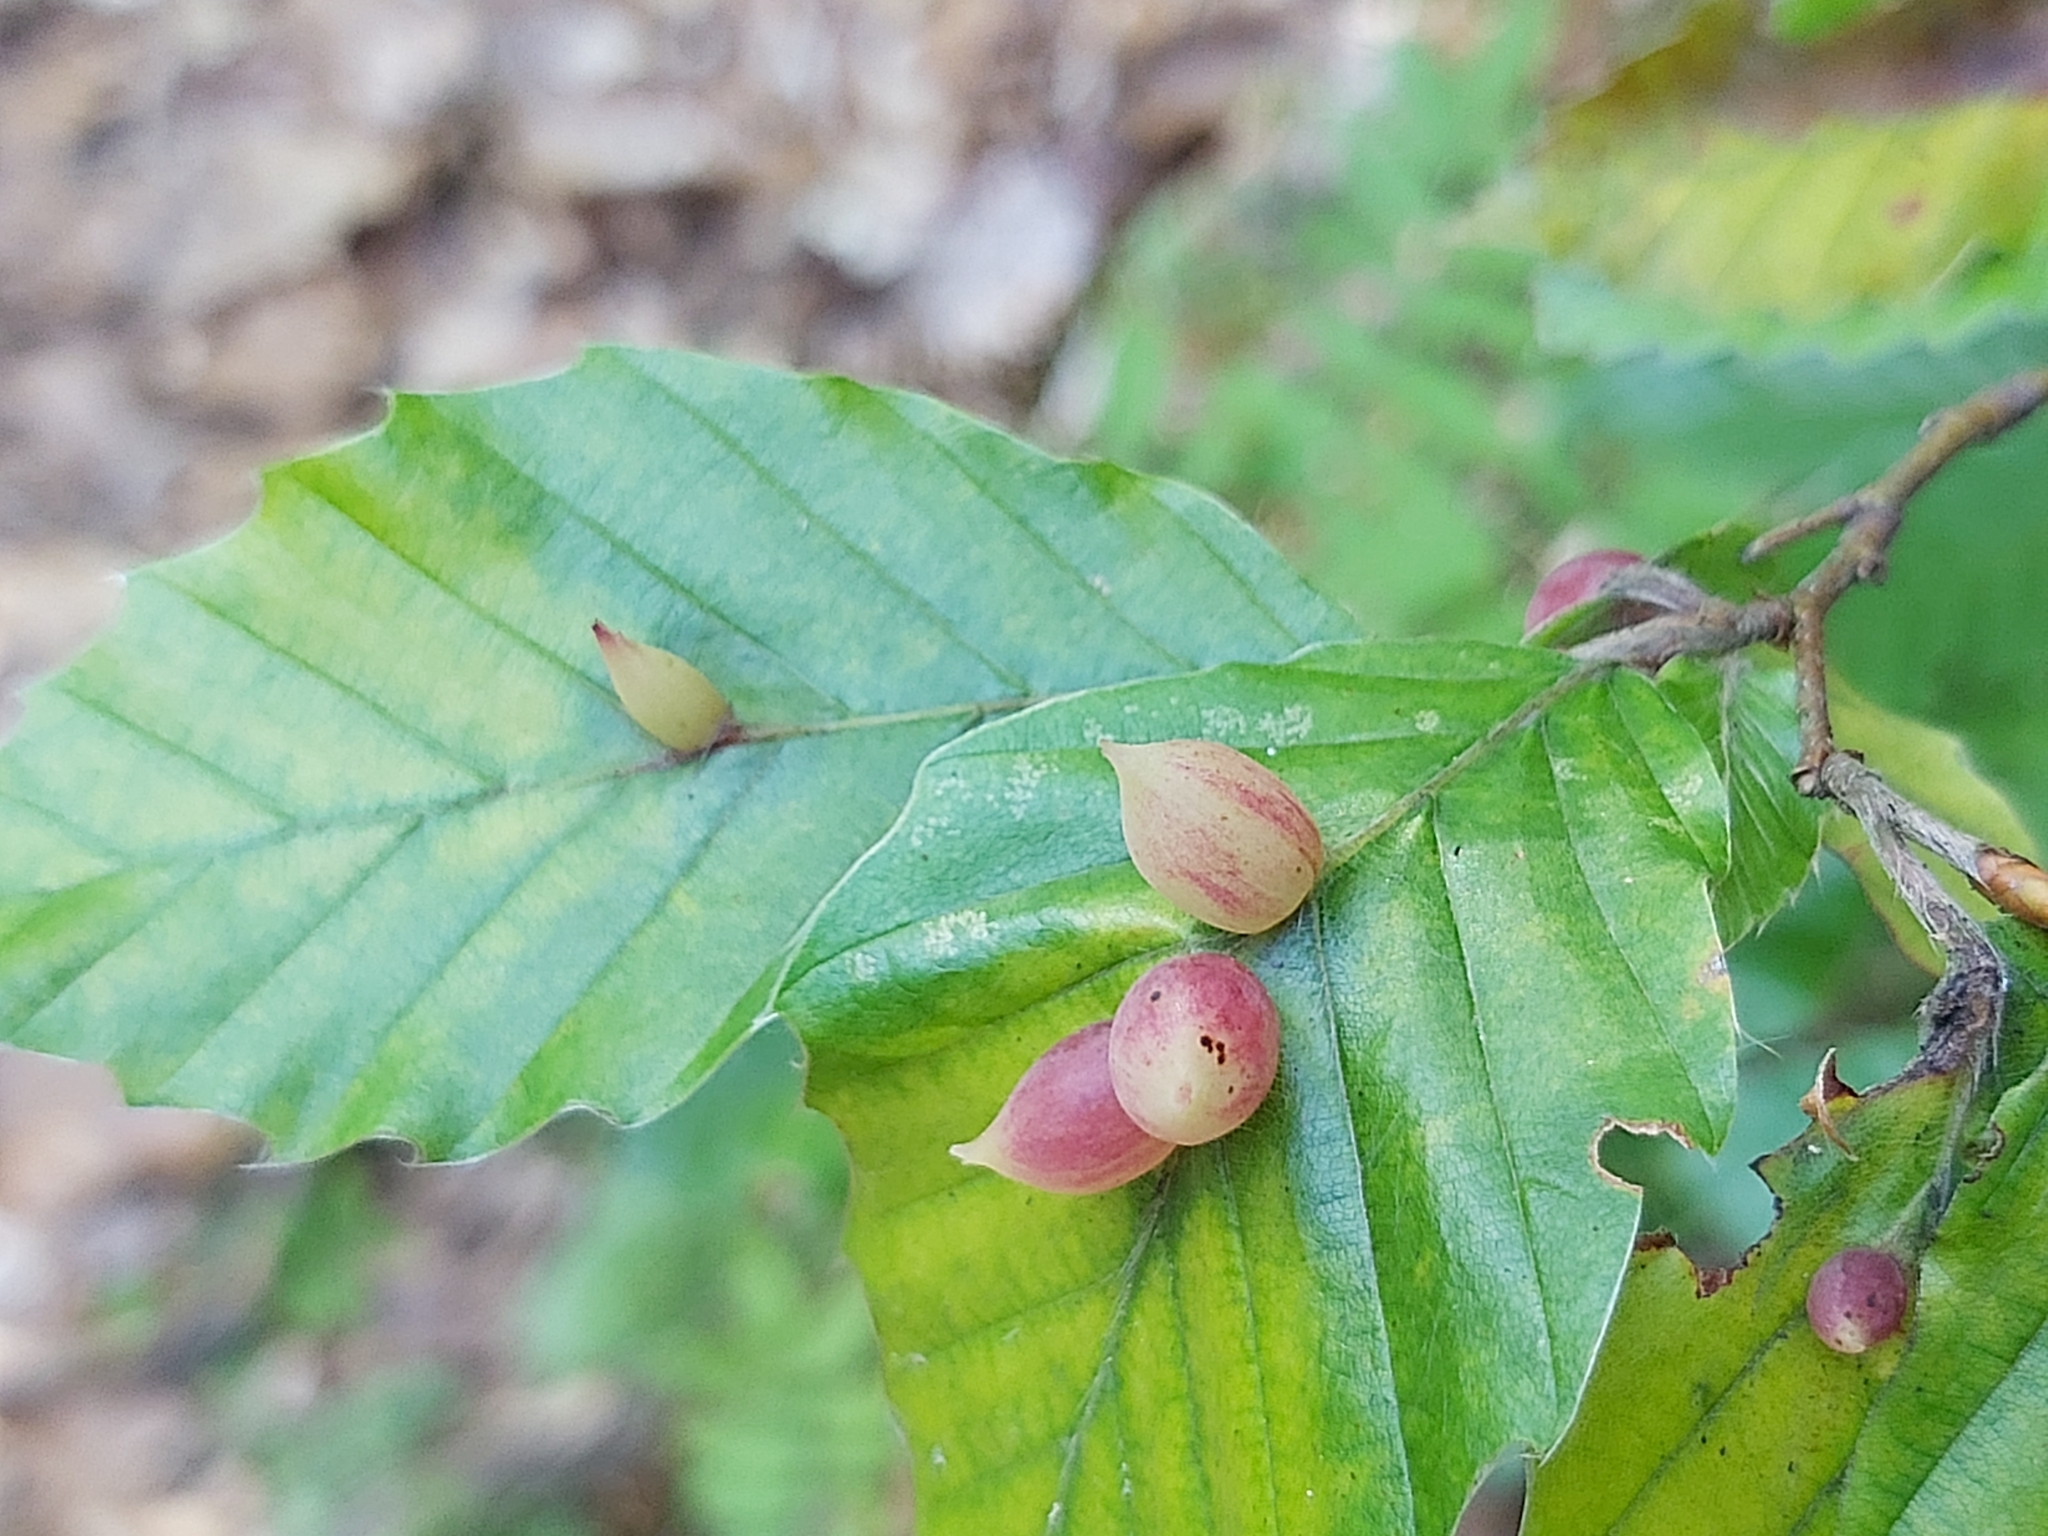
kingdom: Animalia
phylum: Arthropoda
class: Insecta
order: Diptera
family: Cecidomyiidae
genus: Mikiola
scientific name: Mikiola fagi
